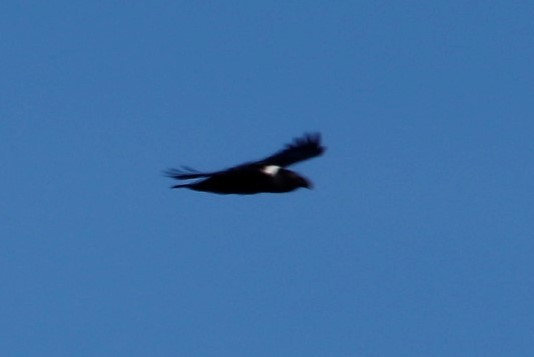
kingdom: Animalia
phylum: Chordata
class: Aves
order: Passeriformes
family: Corvidae
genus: Corvus
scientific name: Corvus albicollis
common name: White-necked raven
